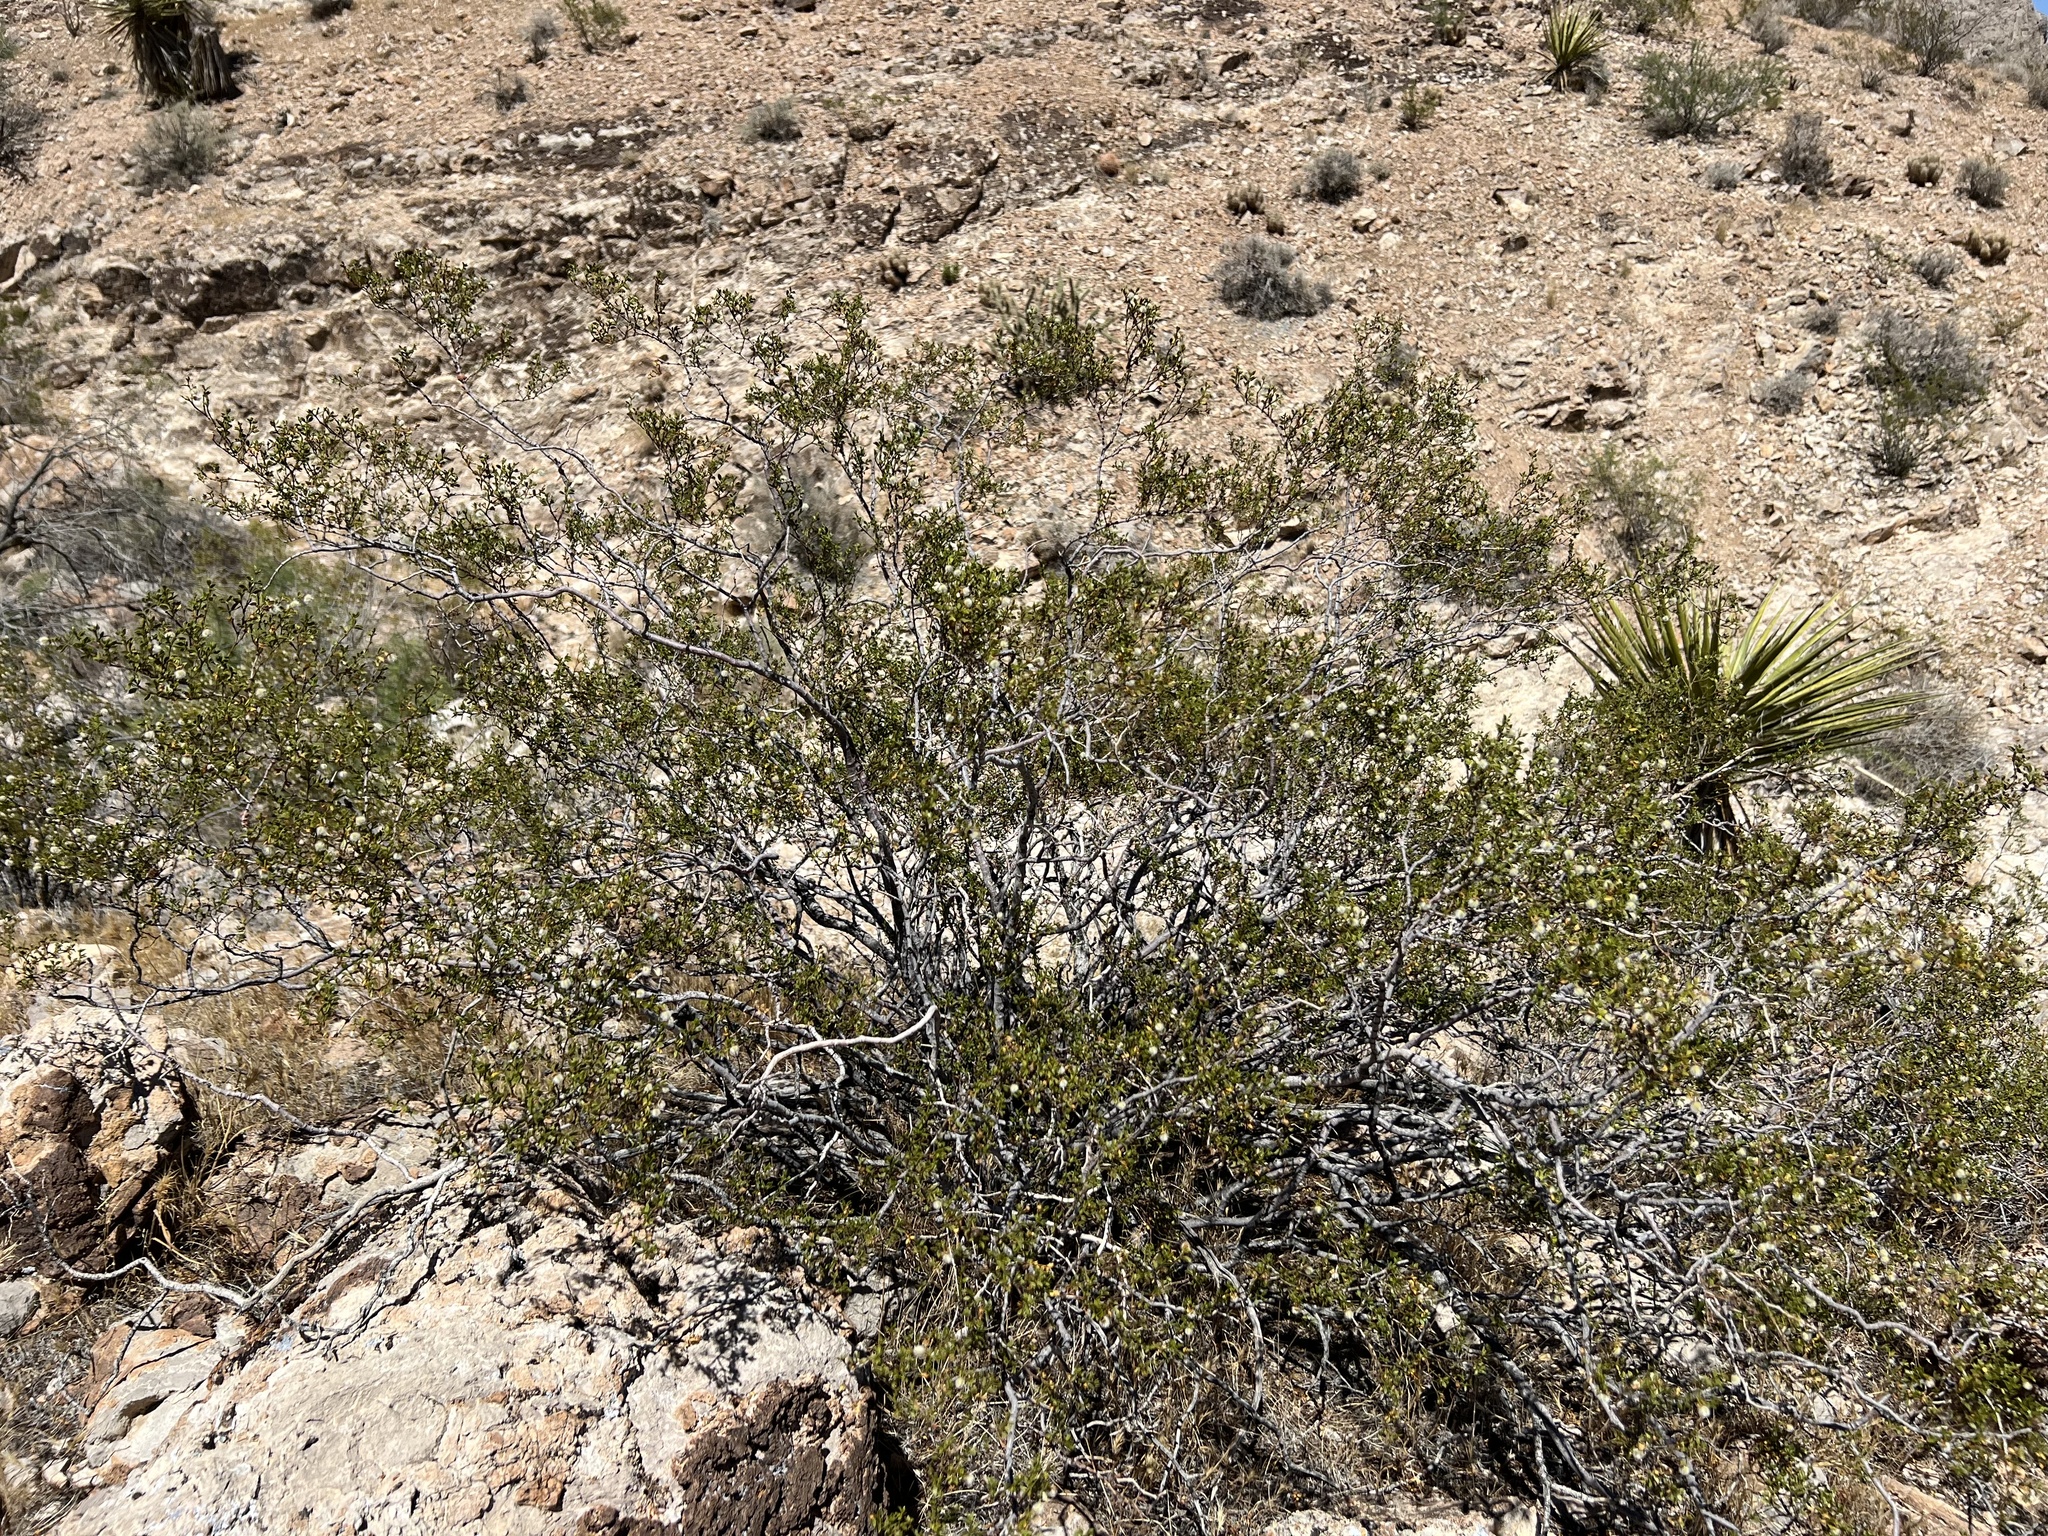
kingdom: Plantae
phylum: Tracheophyta
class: Magnoliopsida
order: Zygophyllales
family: Zygophyllaceae
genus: Larrea
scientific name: Larrea tridentata
